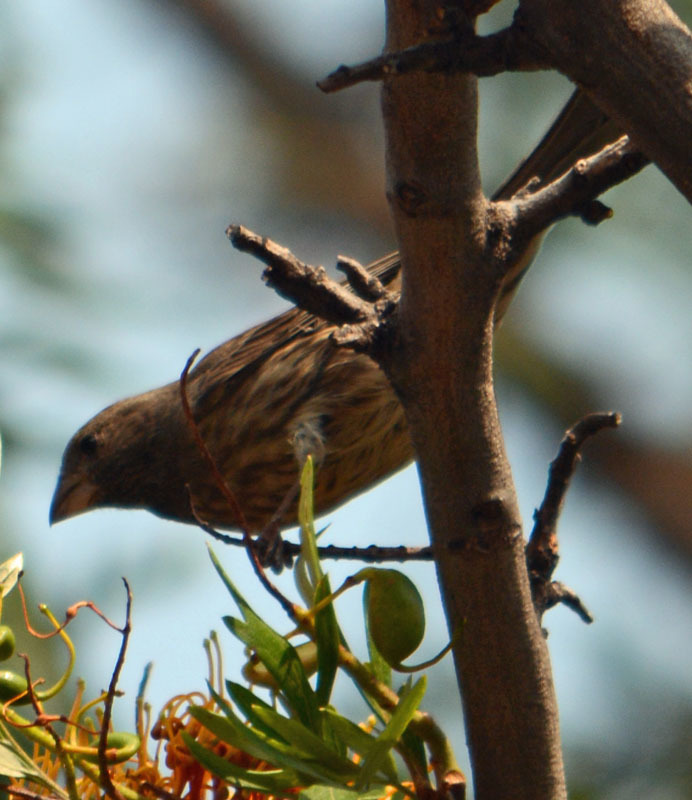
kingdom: Animalia
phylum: Chordata
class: Aves
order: Passeriformes
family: Fringillidae
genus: Haemorhous
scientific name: Haemorhous mexicanus
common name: House finch
